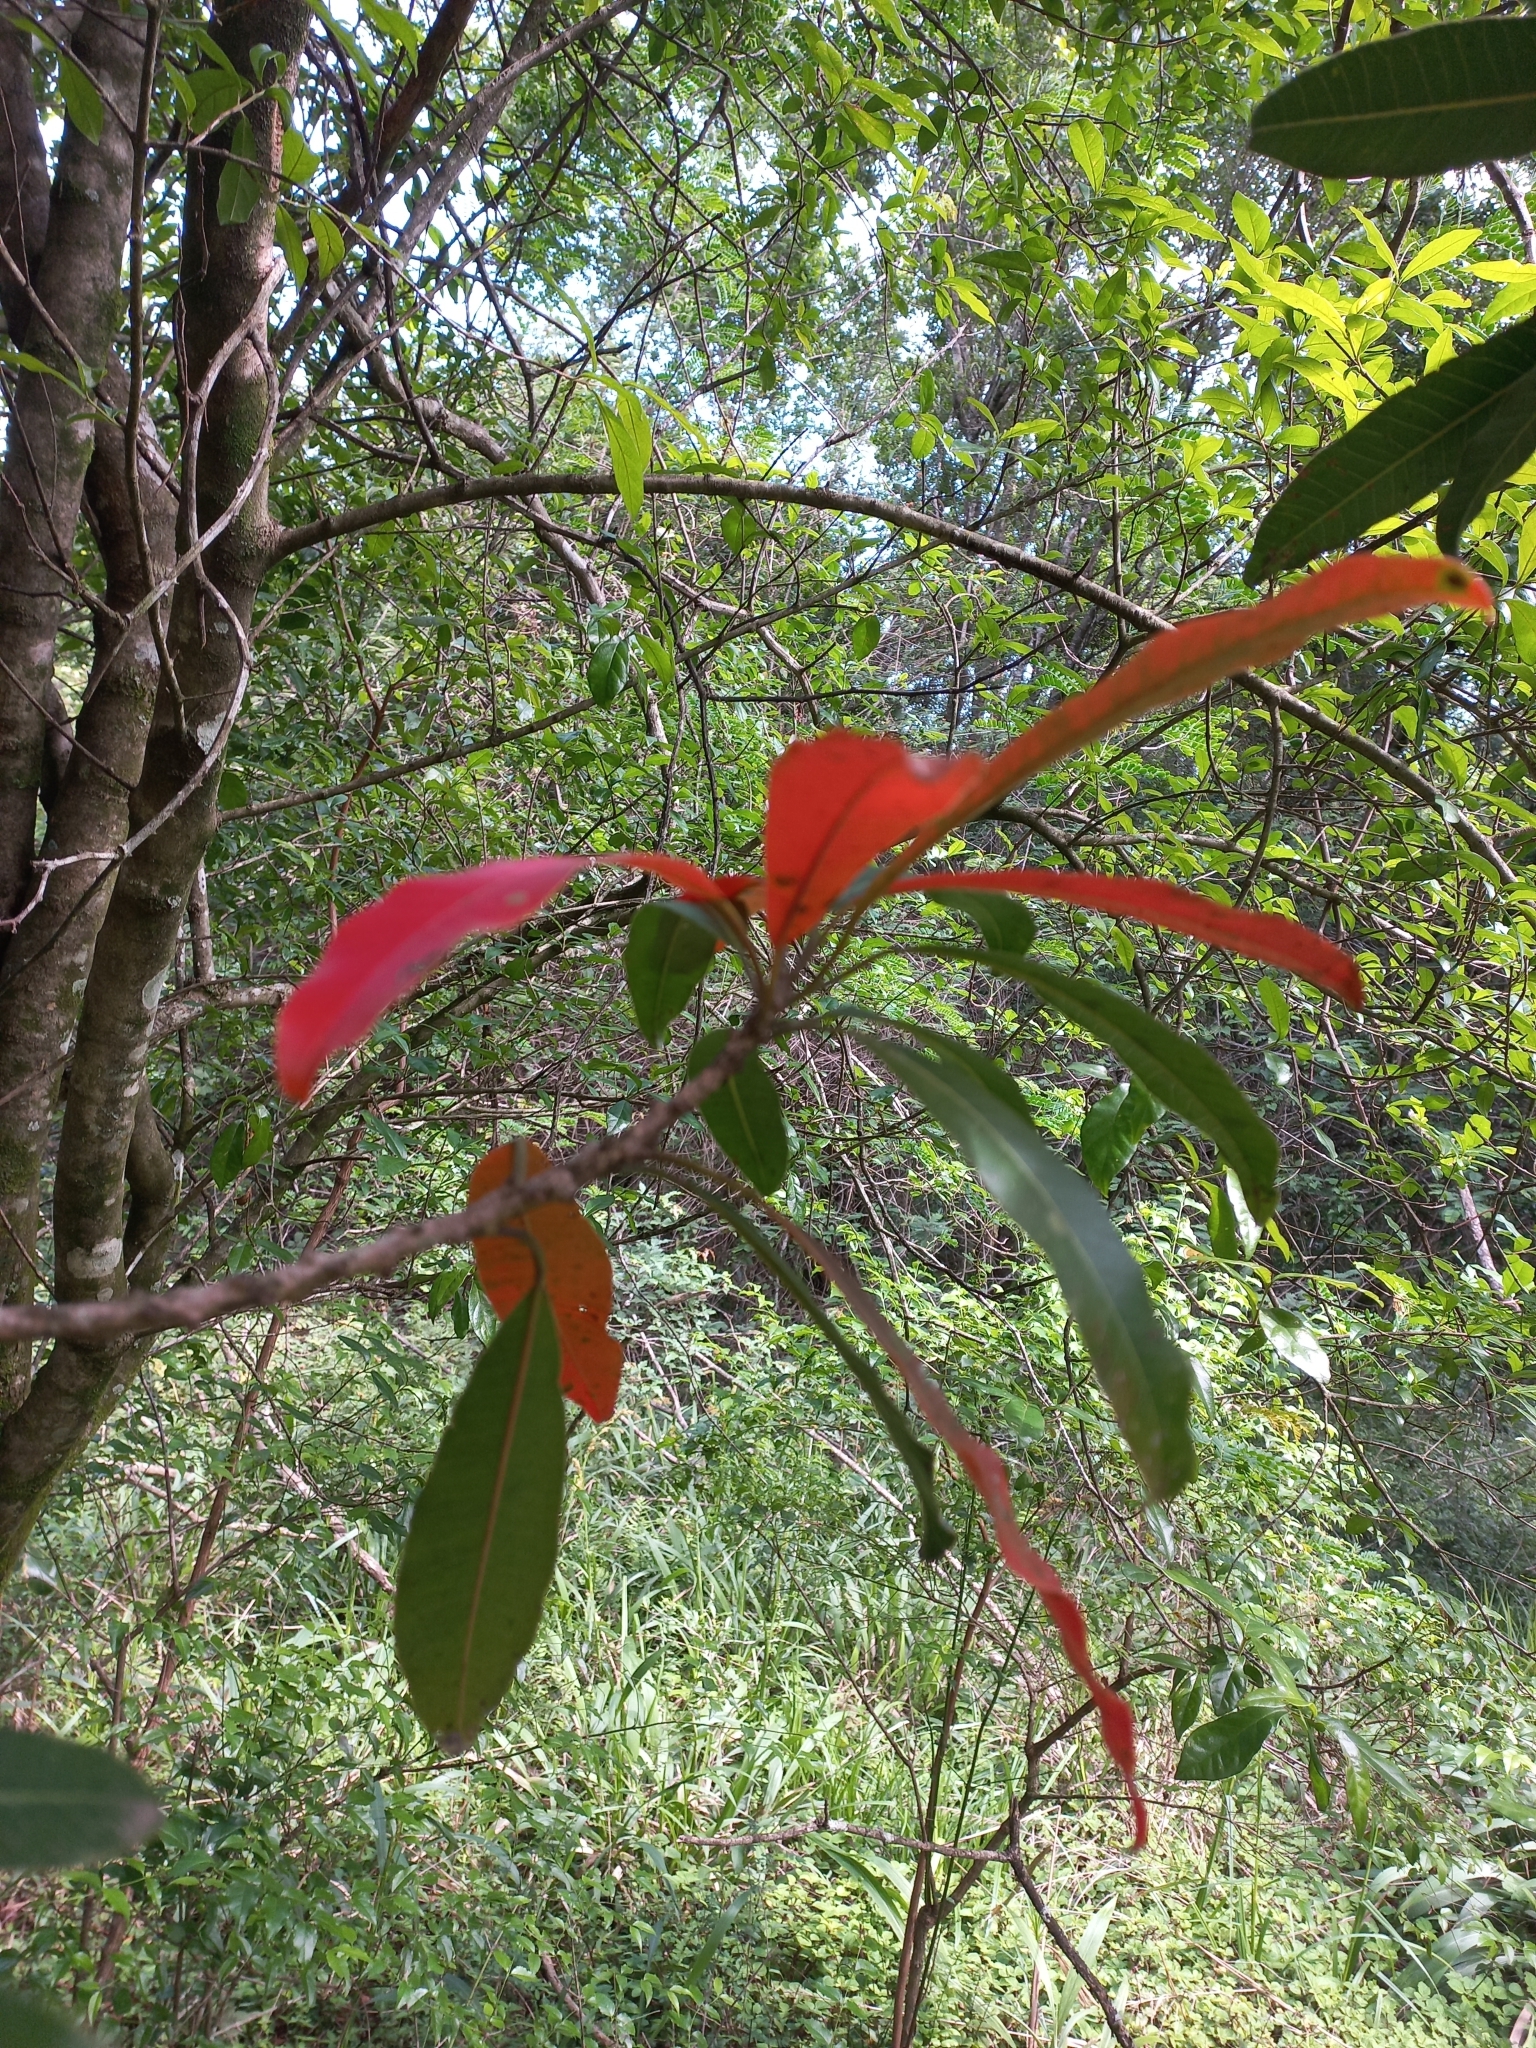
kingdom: Plantae
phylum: Tracheophyta
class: Magnoliopsida
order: Sapindales
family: Anacardiaceae
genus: Protorhus
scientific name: Protorhus longifolia
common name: Red-beech
